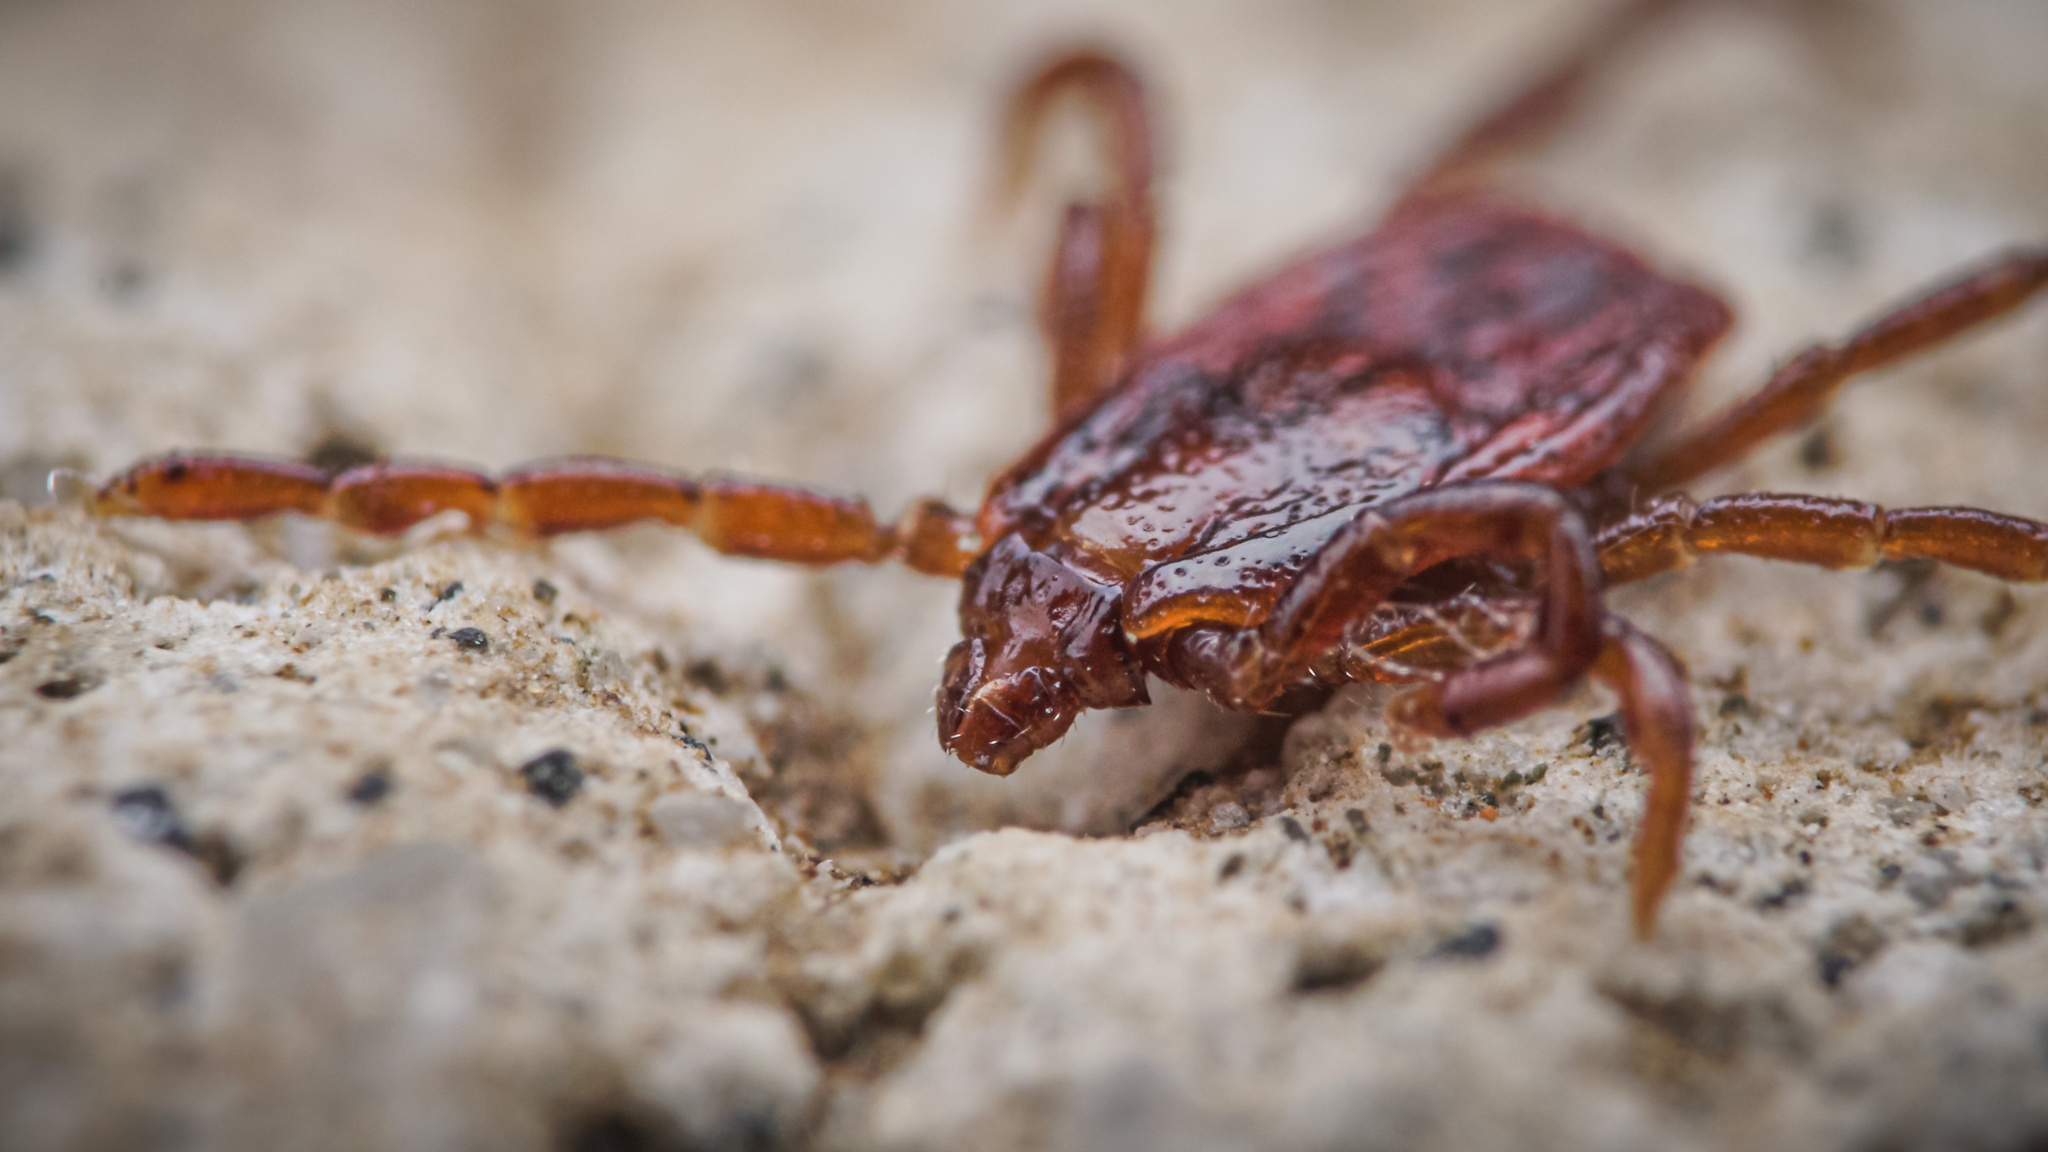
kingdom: Animalia
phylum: Arthropoda
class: Arachnida
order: Ixodida
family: Ixodidae
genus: Rhipicephalus
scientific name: Rhipicephalus sanguineus
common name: Brown dog tick
